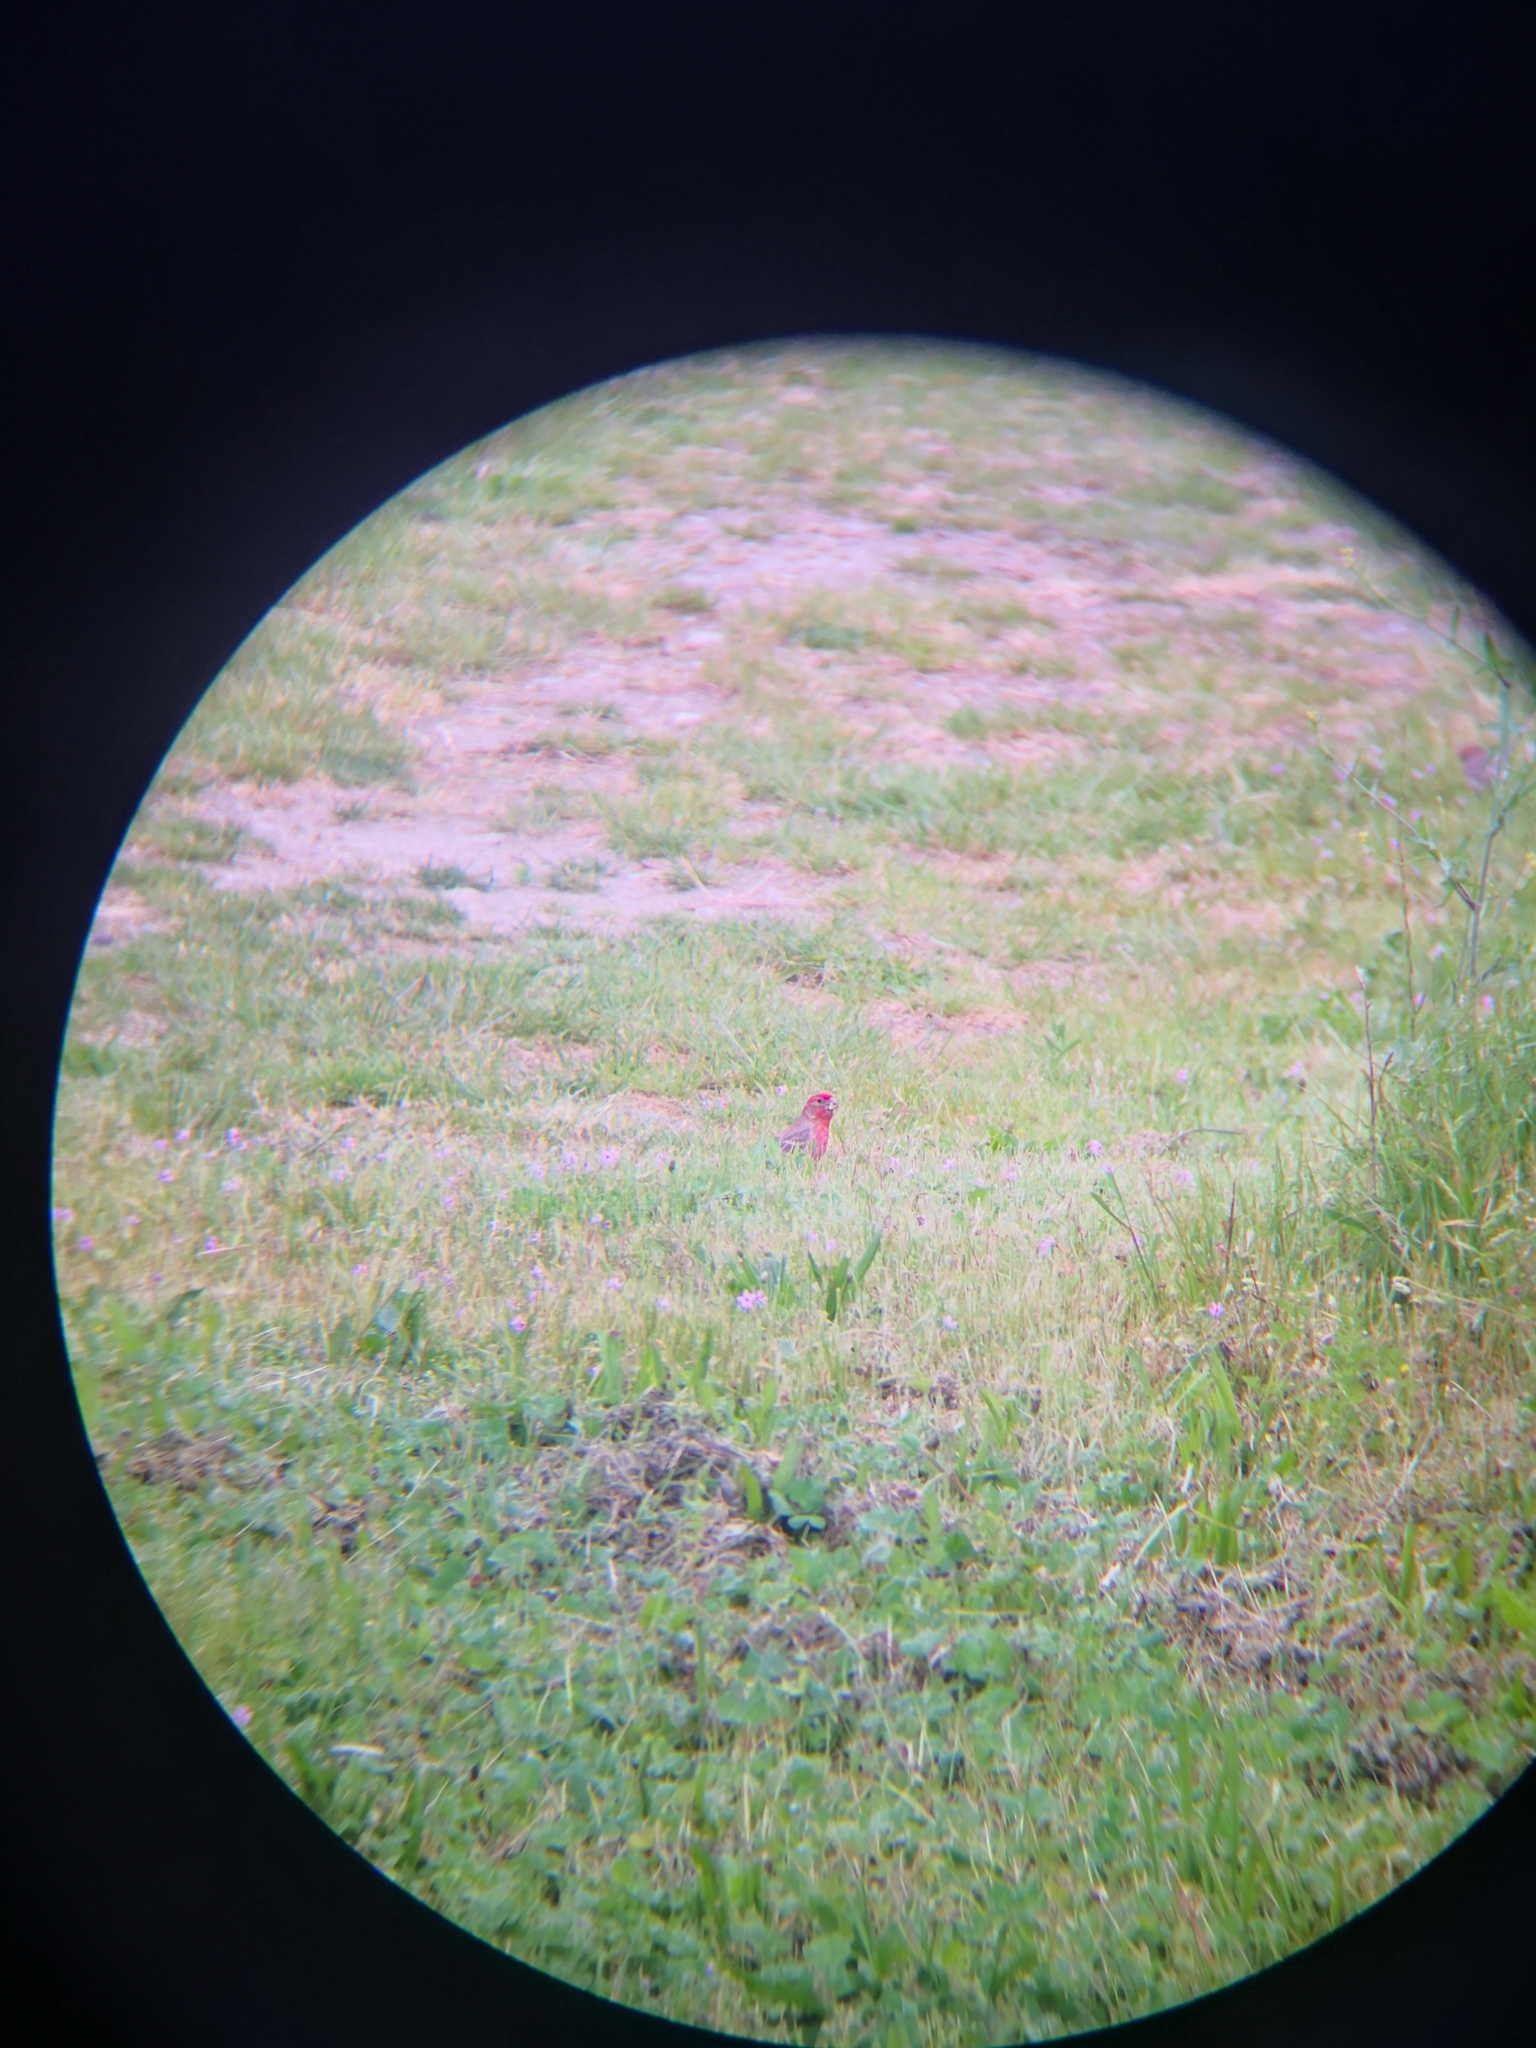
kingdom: Animalia
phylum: Chordata
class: Aves
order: Passeriformes
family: Fringillidae
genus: Haemorhous
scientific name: Haemorhous mexicanus
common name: House finch
